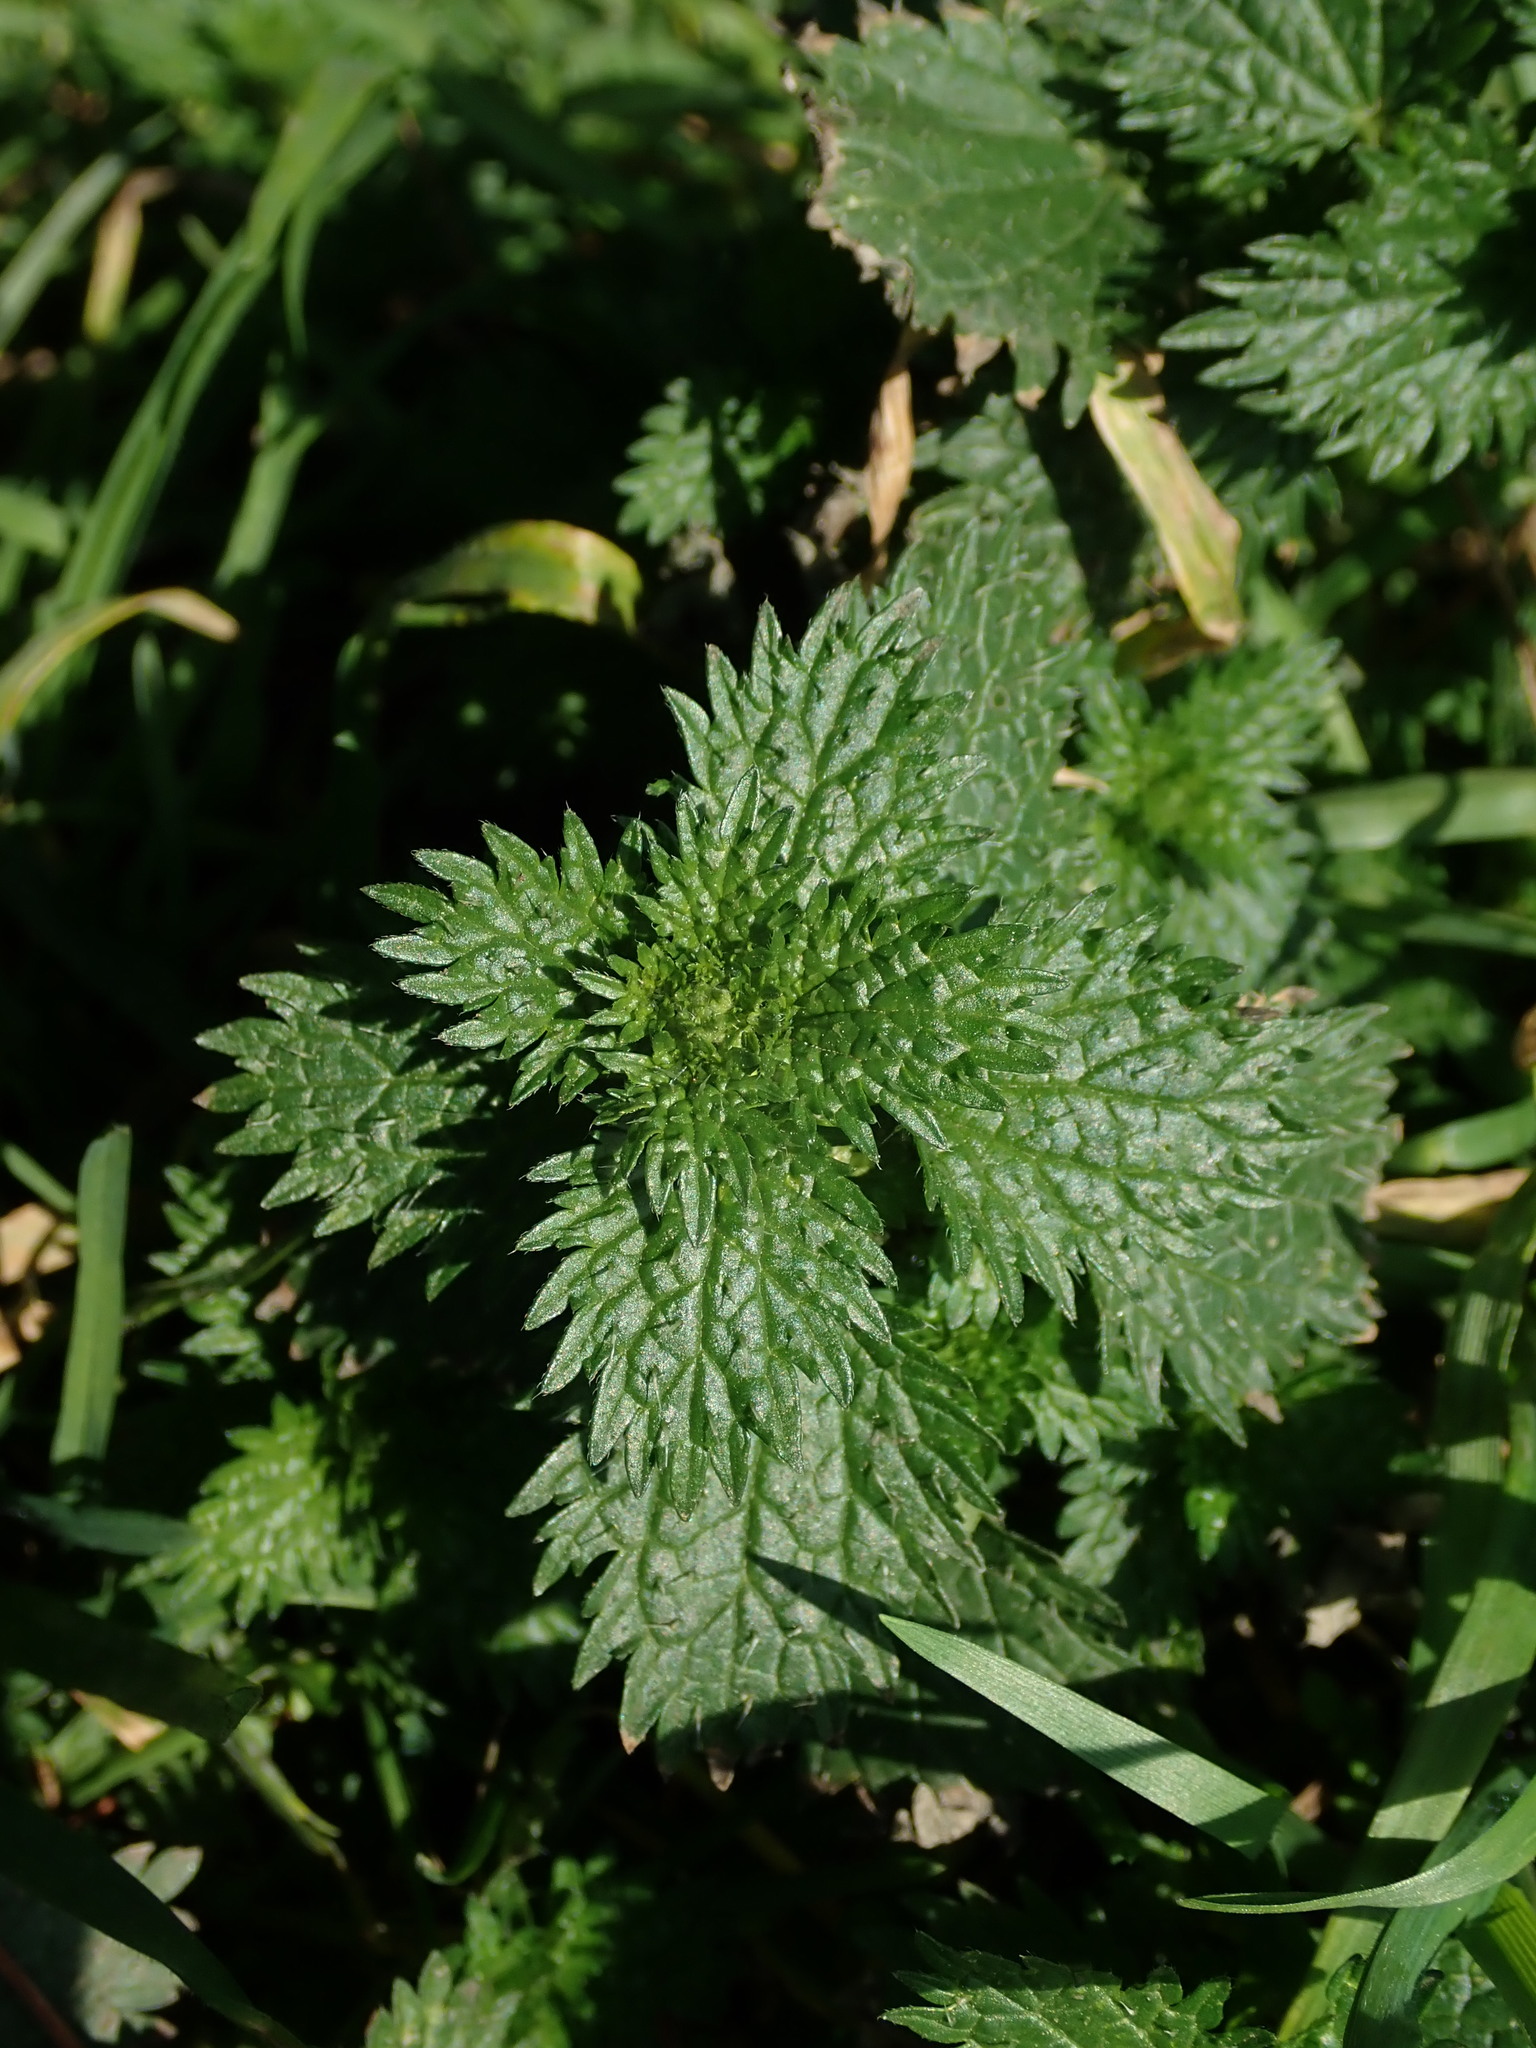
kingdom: Plantae
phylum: Tracheophyta
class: Magnoliopsida
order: Rosales
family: Urticaceae
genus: Urtica
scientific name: Urtica urens
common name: Dwarf nettle
